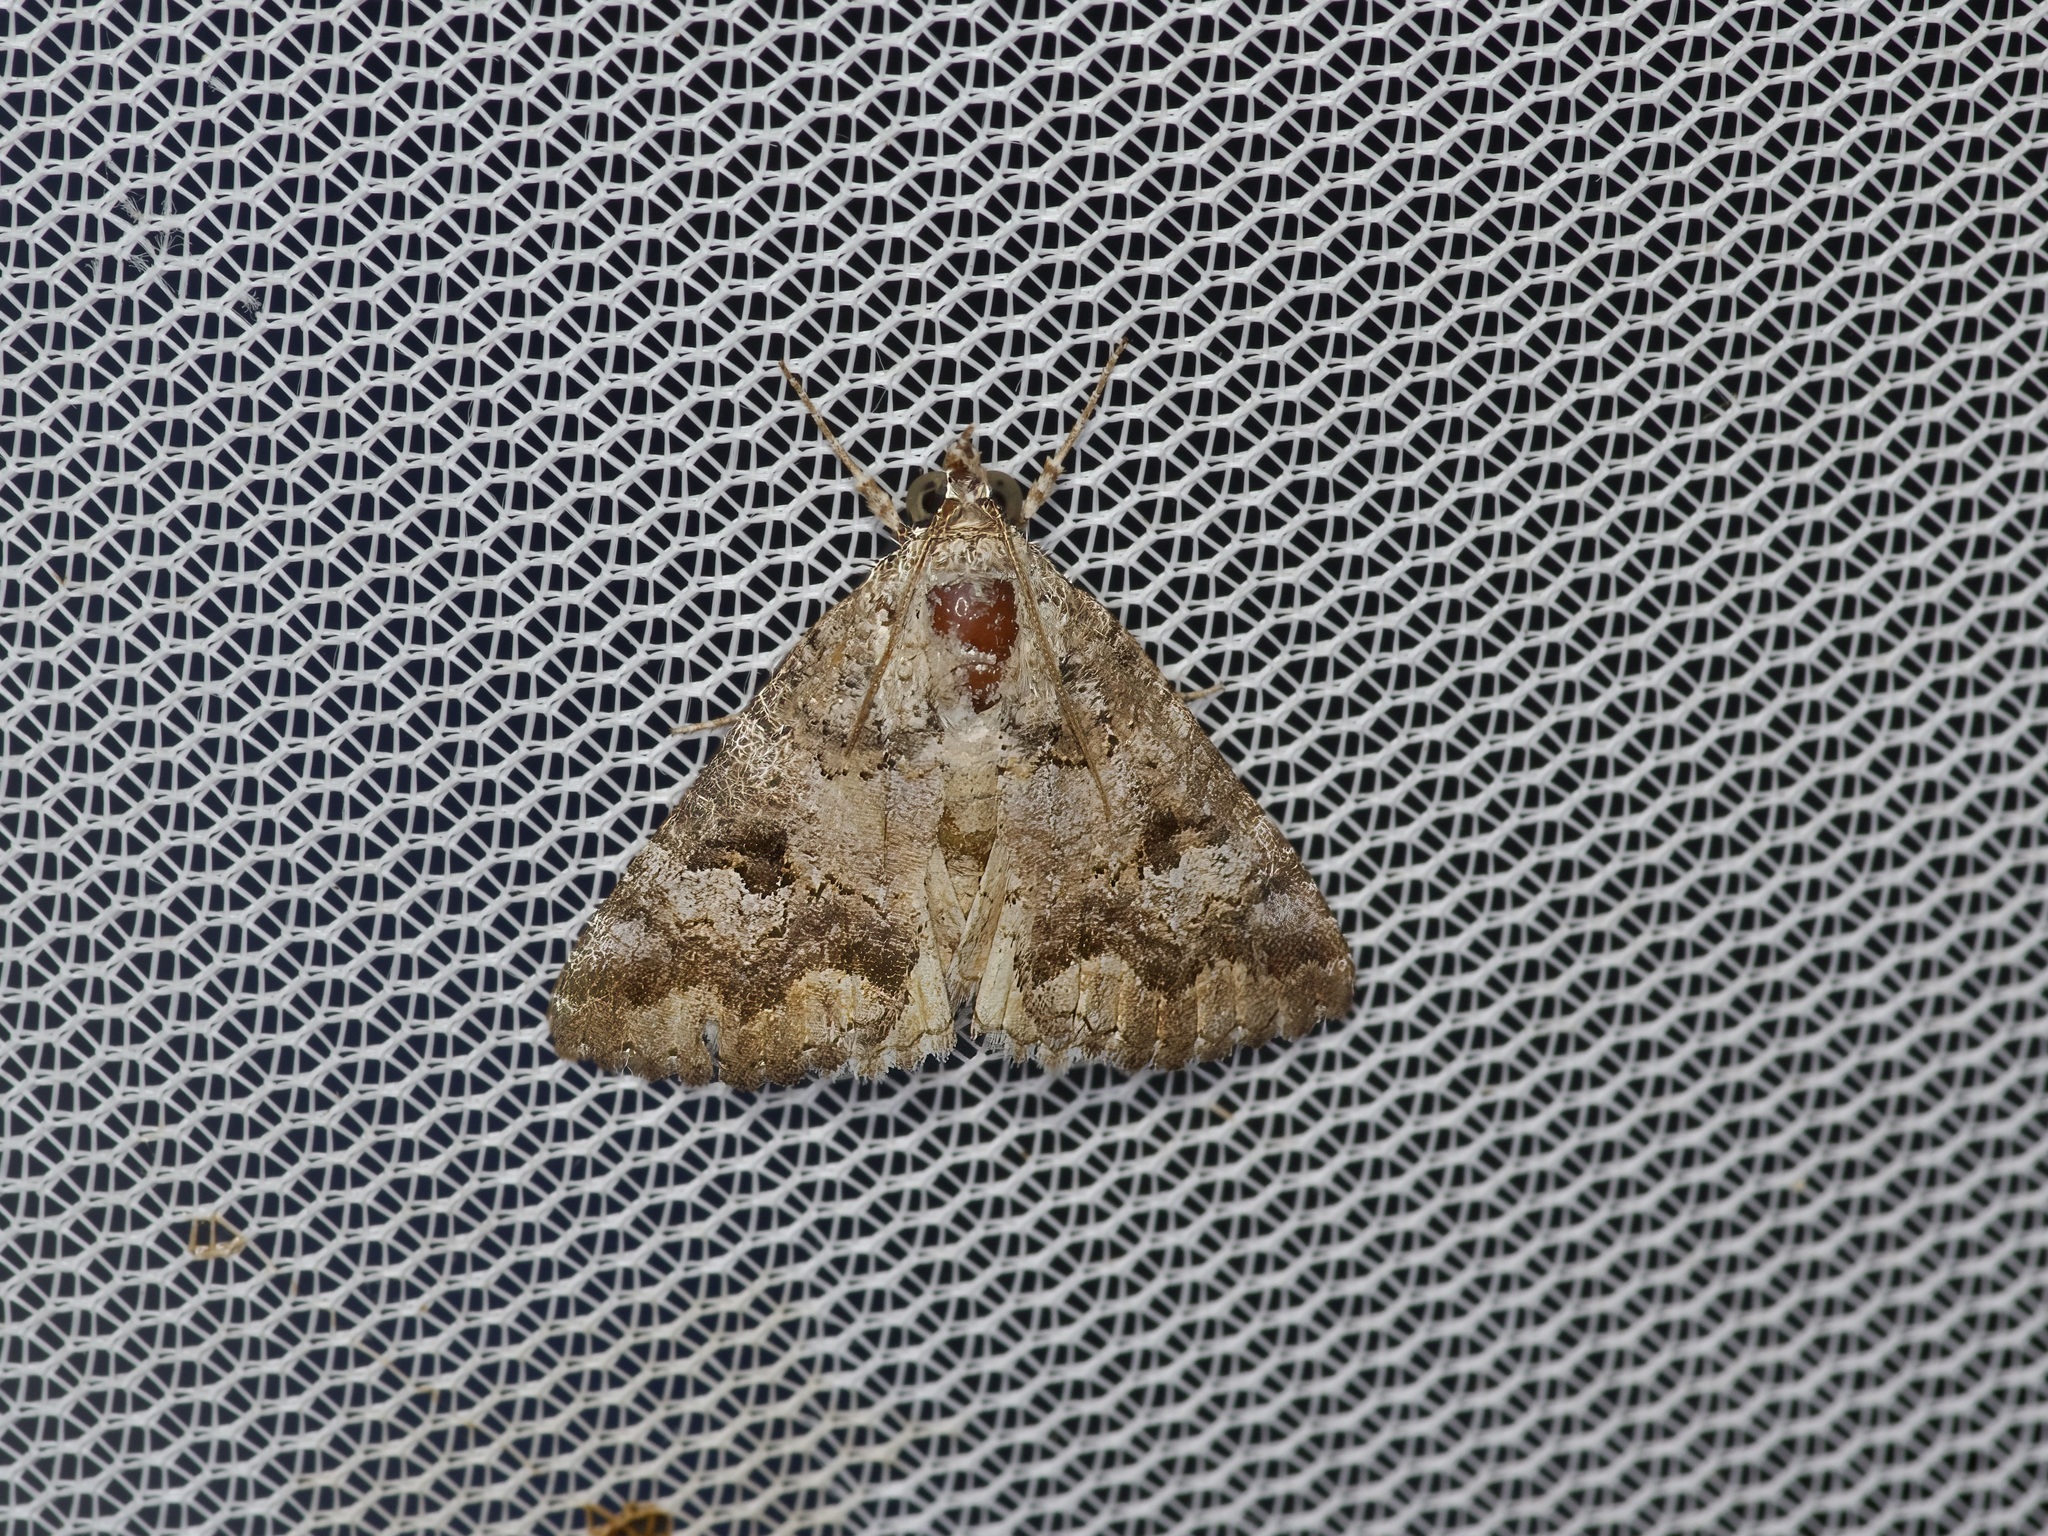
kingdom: Animalia
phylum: Arthropoda
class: Insecta
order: Lepidoptera
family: Erebidae
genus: Eubolina
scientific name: Eubolina impartialis
